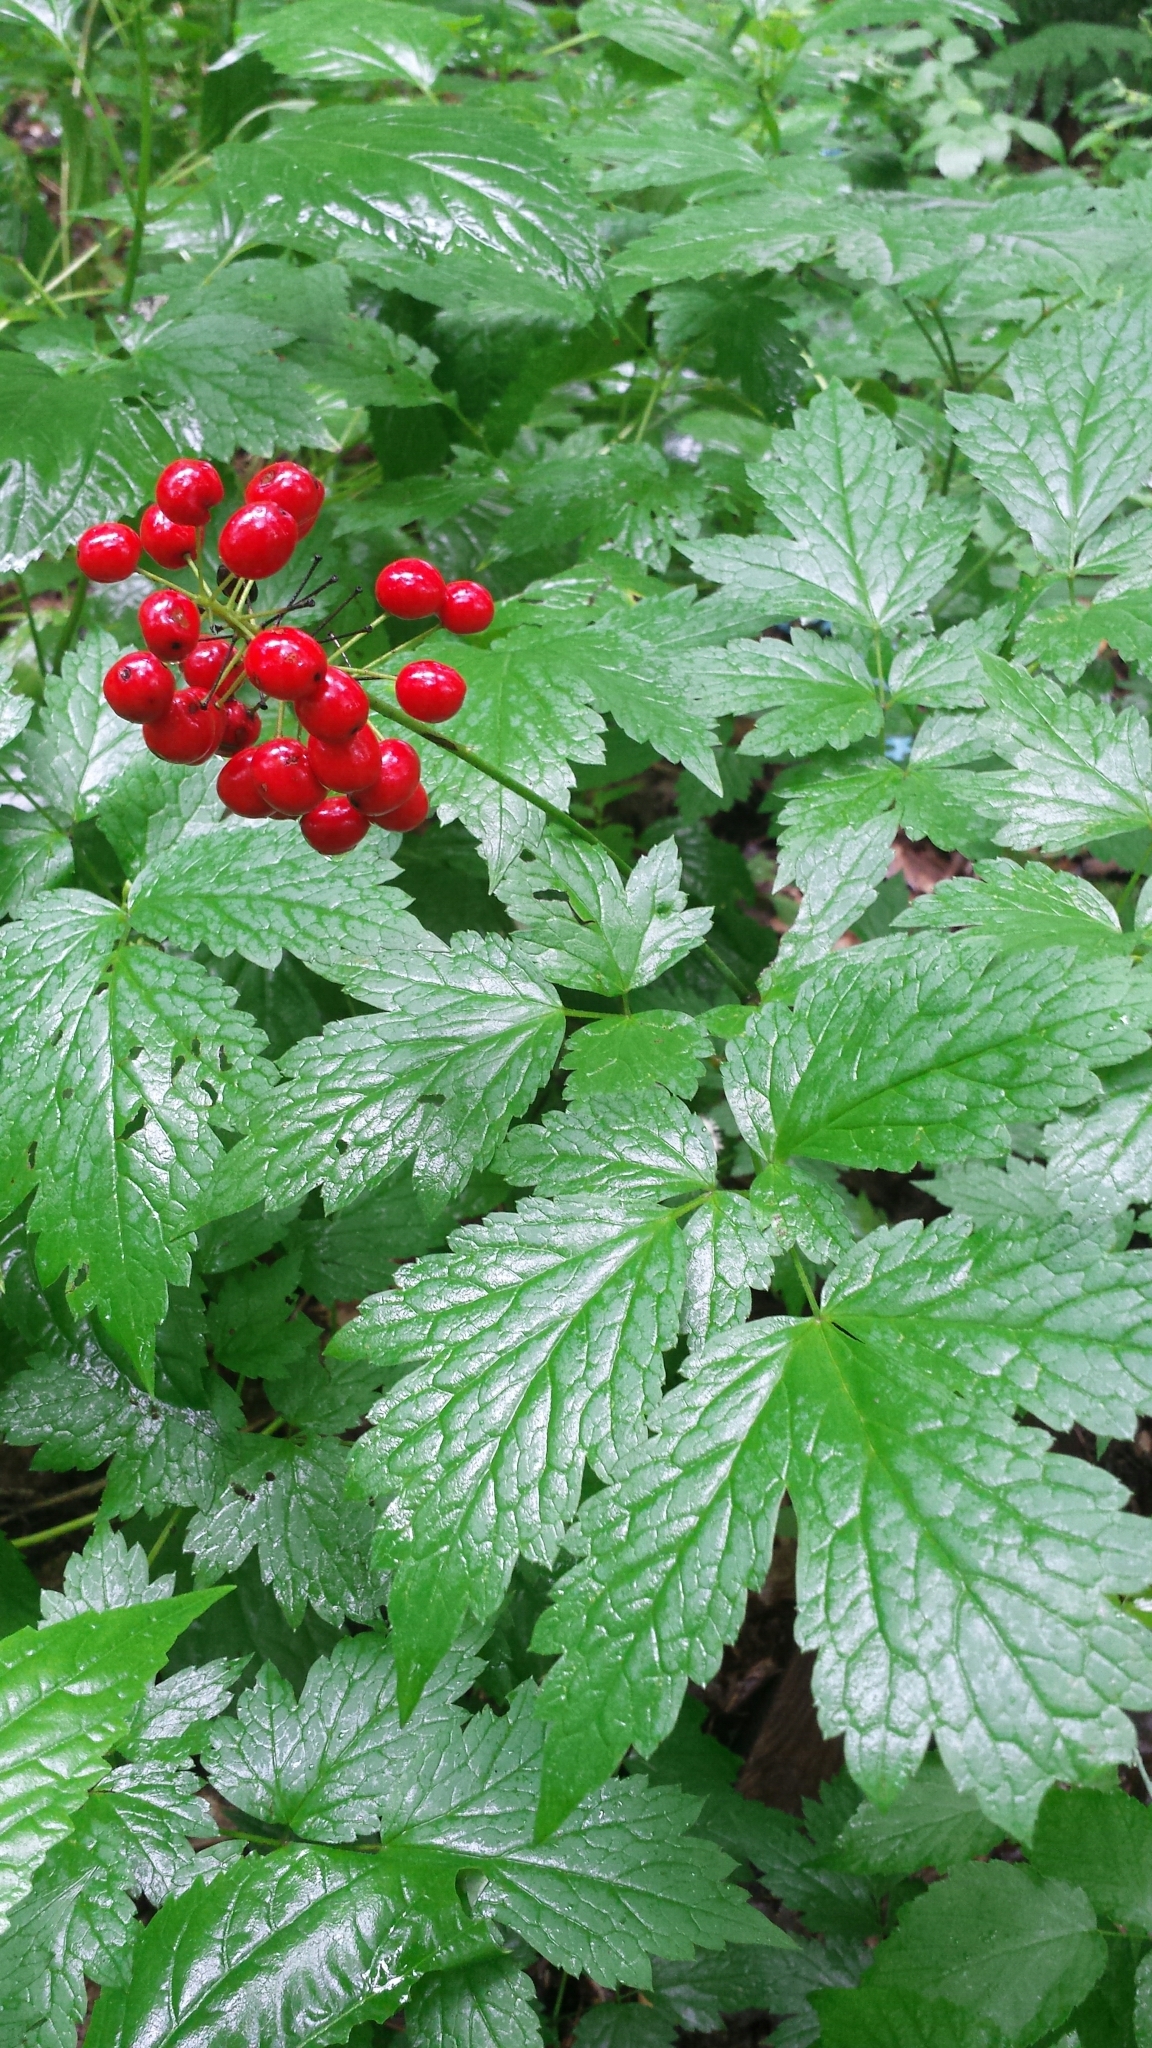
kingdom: Plantae
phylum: Tracheophyta
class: Magnoliopsida
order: Ranunculales
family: Ranunculaceae
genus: Actaea
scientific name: Actaea rubra
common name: Red baneberry
